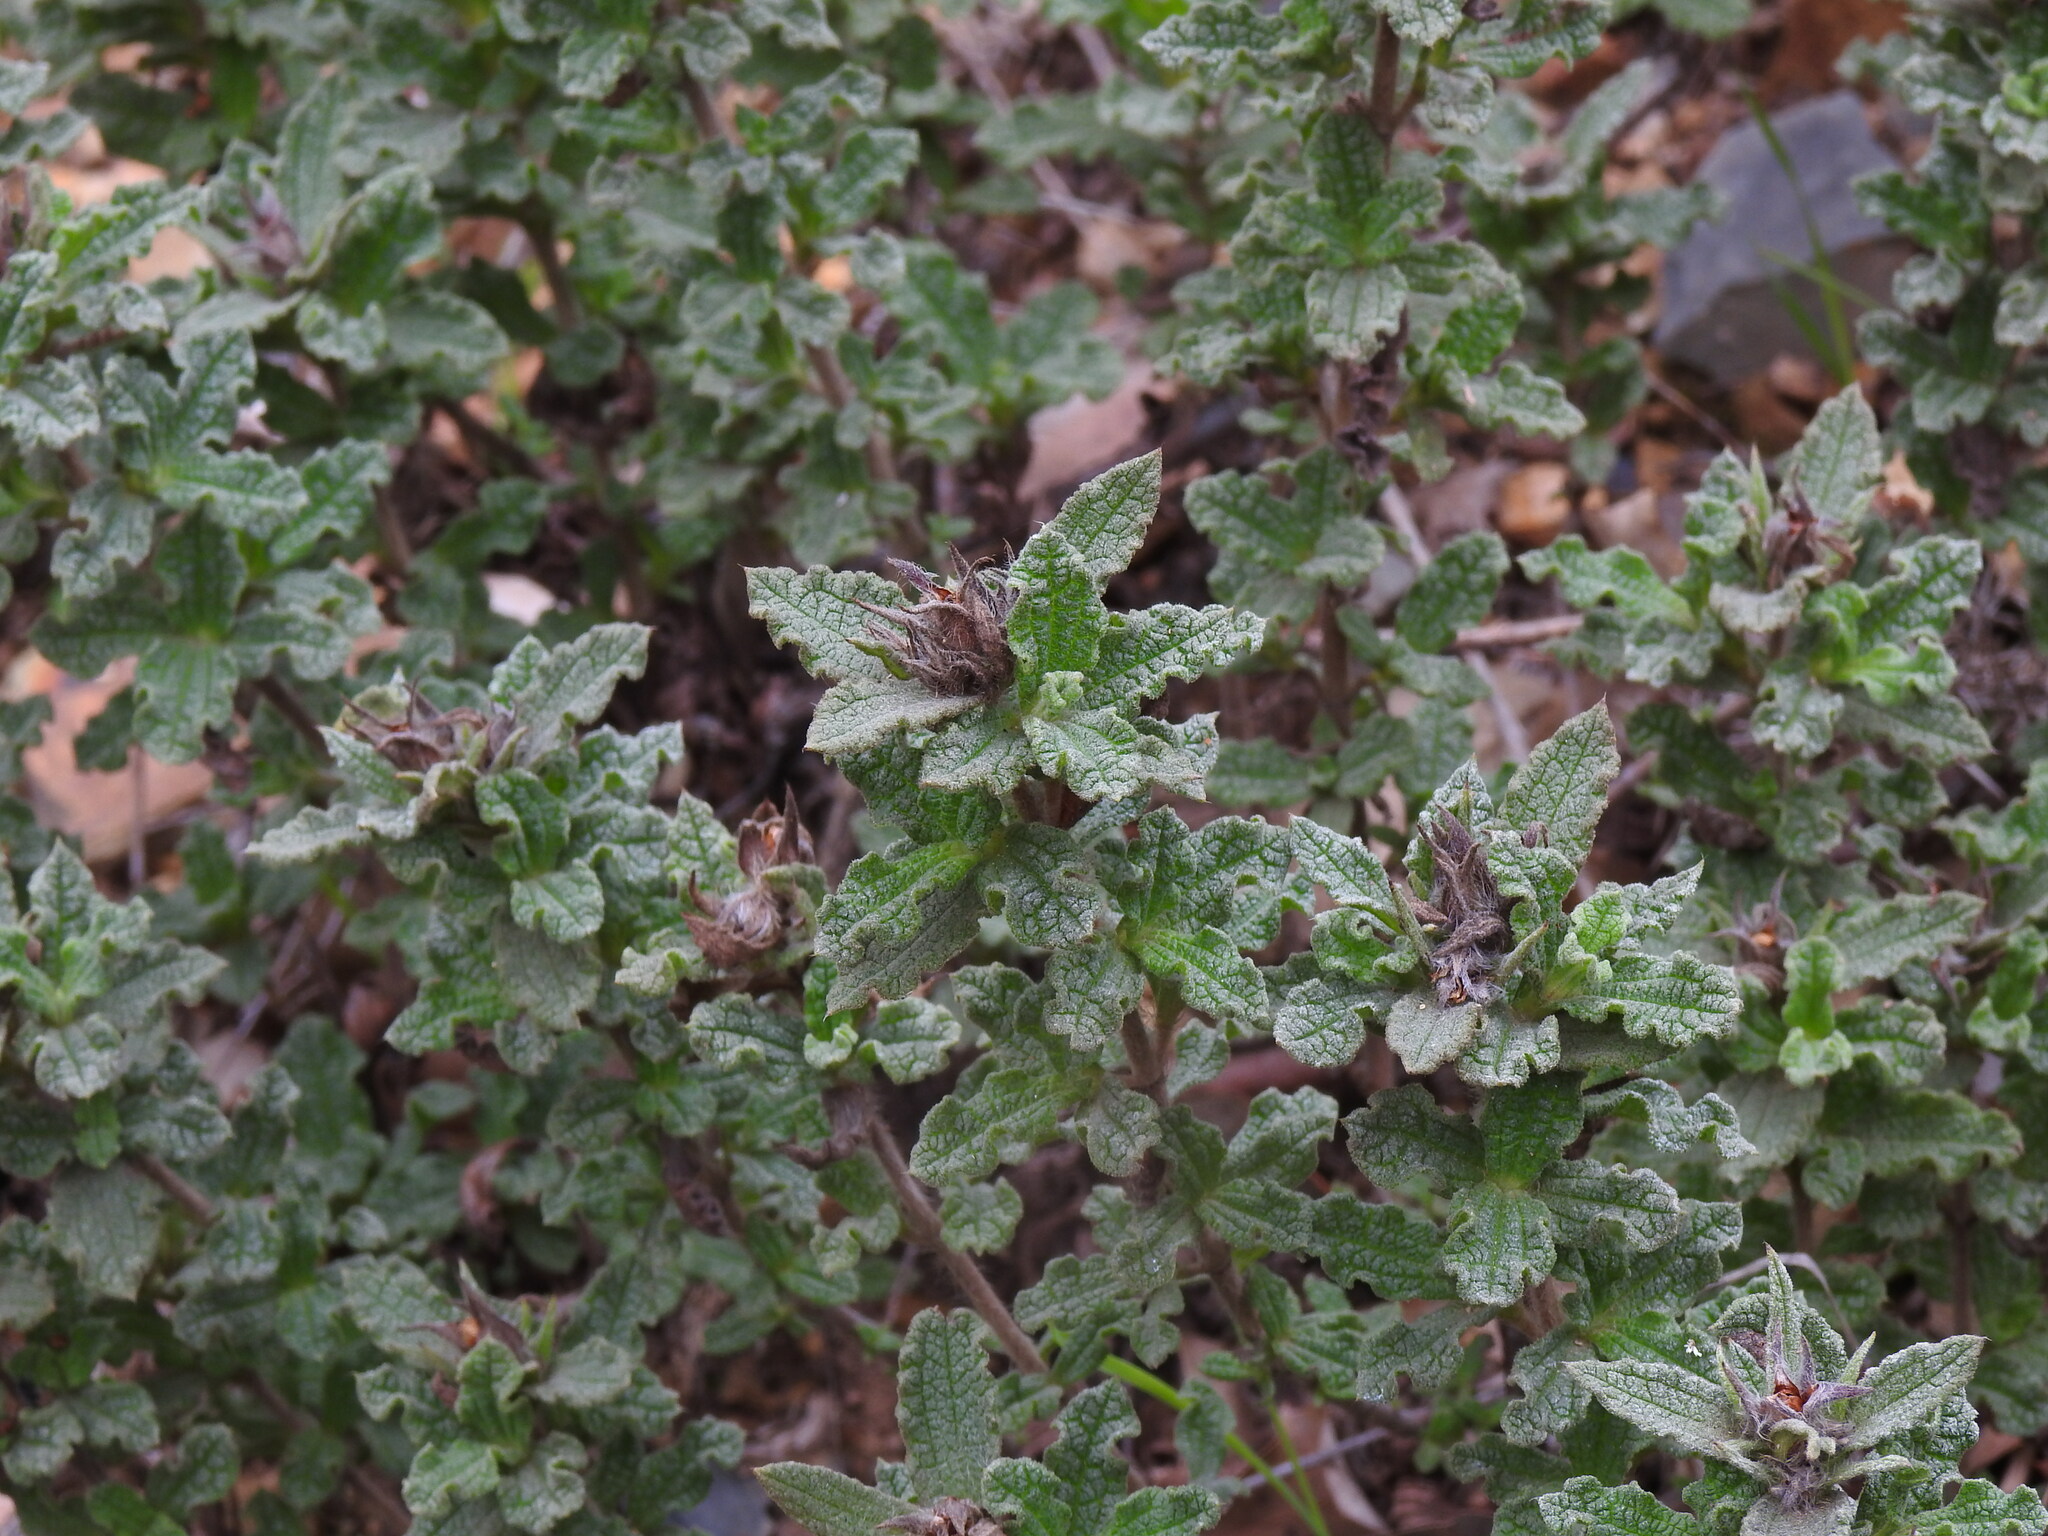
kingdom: Plantae
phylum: Tracheophyta
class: Magnoliopsida
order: Malvales
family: Cistaceae
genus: Cistus
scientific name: Cistus crispus
